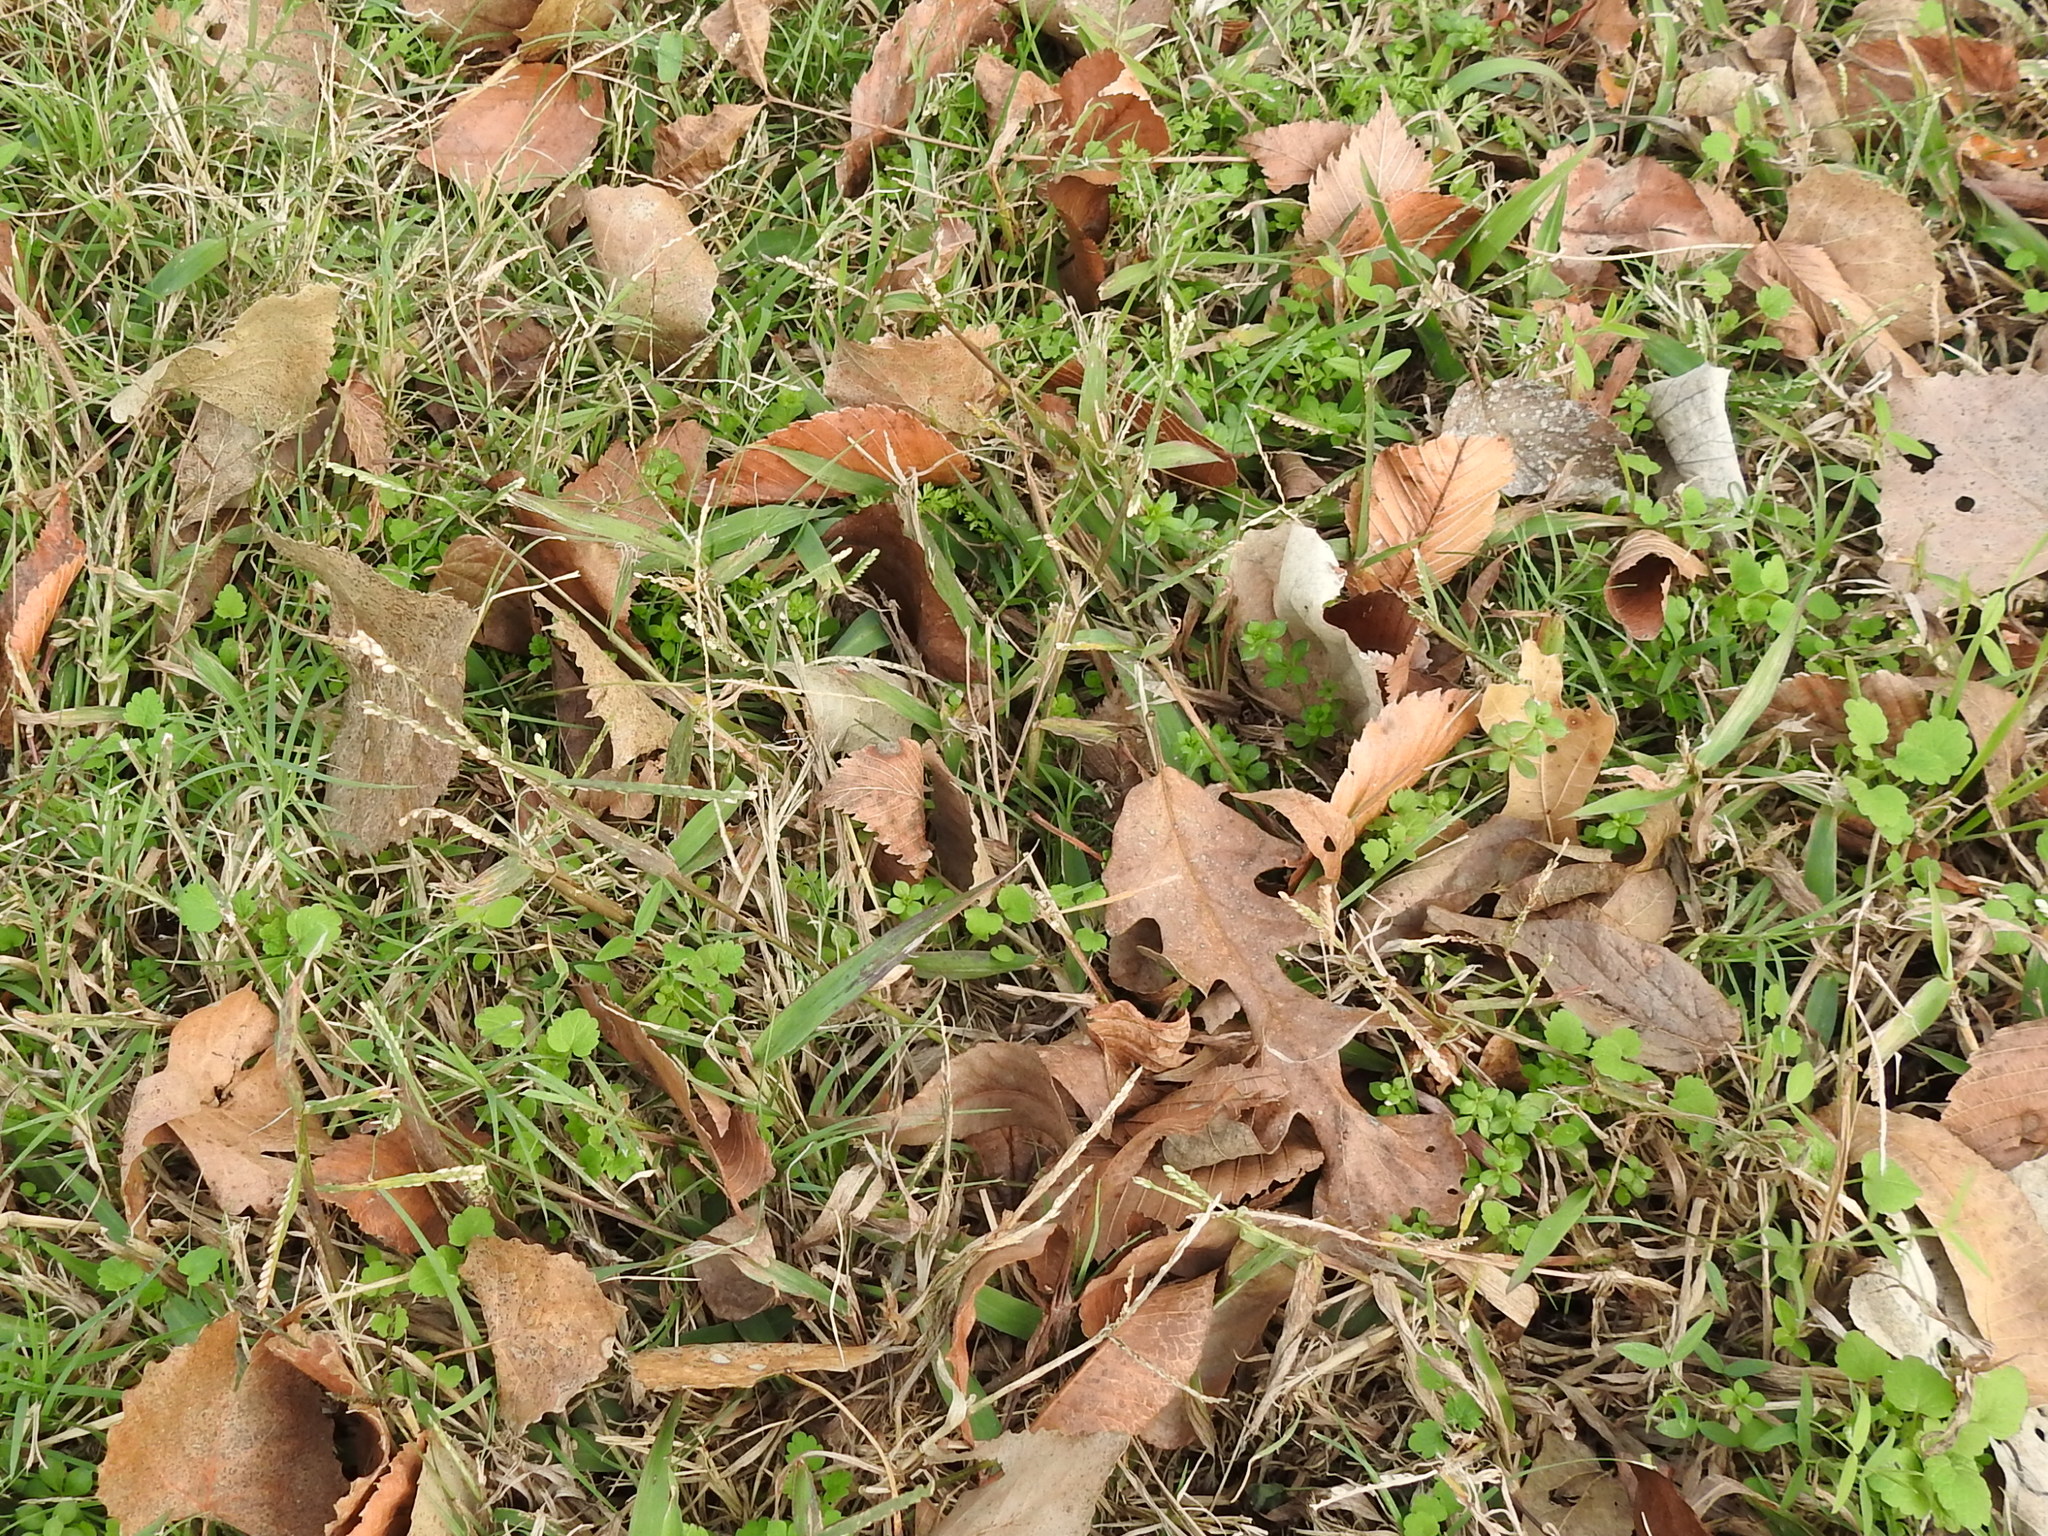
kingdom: Plantae
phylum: Tracheophyta
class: Liliopsida
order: Poales
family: Poaceae
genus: Paspalum
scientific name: Paspalum pubiflorum
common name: Hairy-seed paspalum
